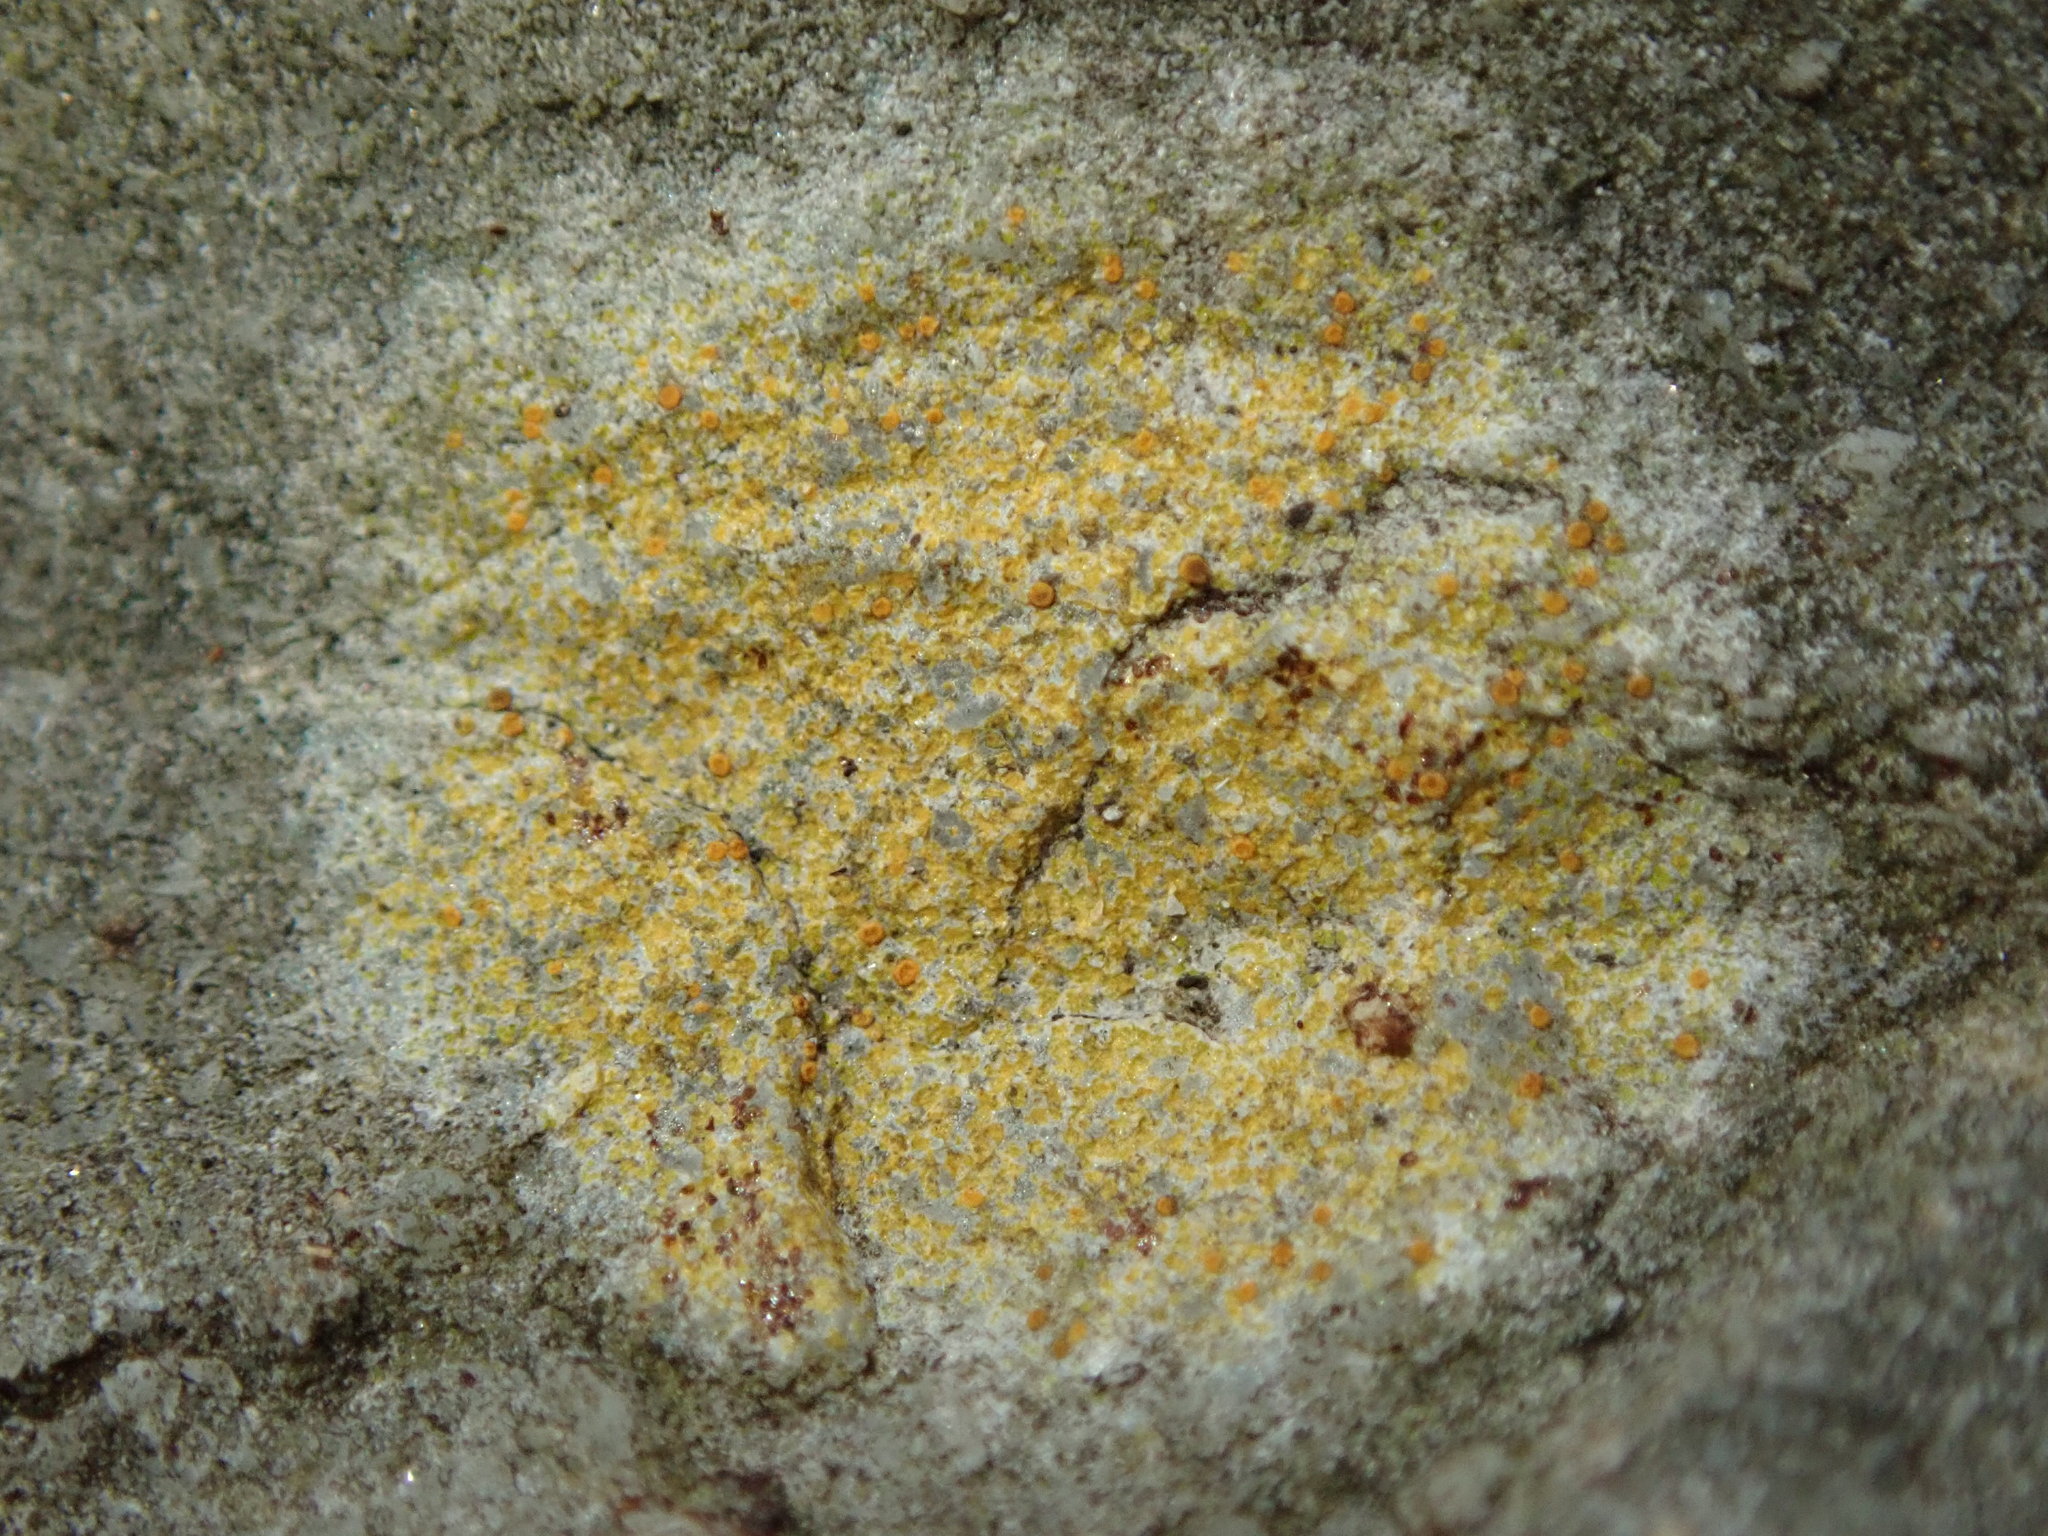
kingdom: Fungi
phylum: Ascomycota
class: Lecanoromycetes
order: Teloschistales
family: Teloschistaceae
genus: Gyalolechia
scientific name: Gyalolechia flavovirescens
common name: Sulphur firedot
